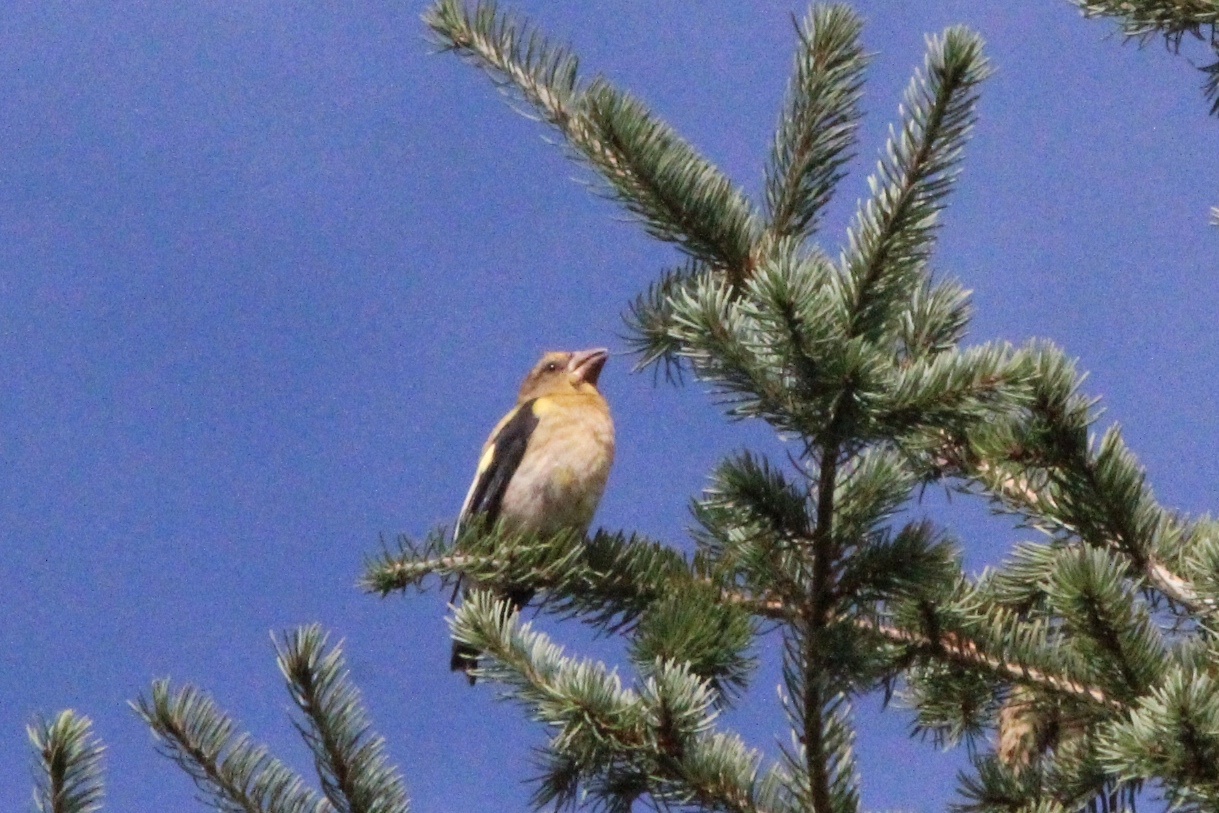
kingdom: Animalia
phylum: Chordata
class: Aves
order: Passeriformes
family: Fringillidae
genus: Hesperiphona
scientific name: Hesperiphona vespertina
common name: Evening grosbeak
